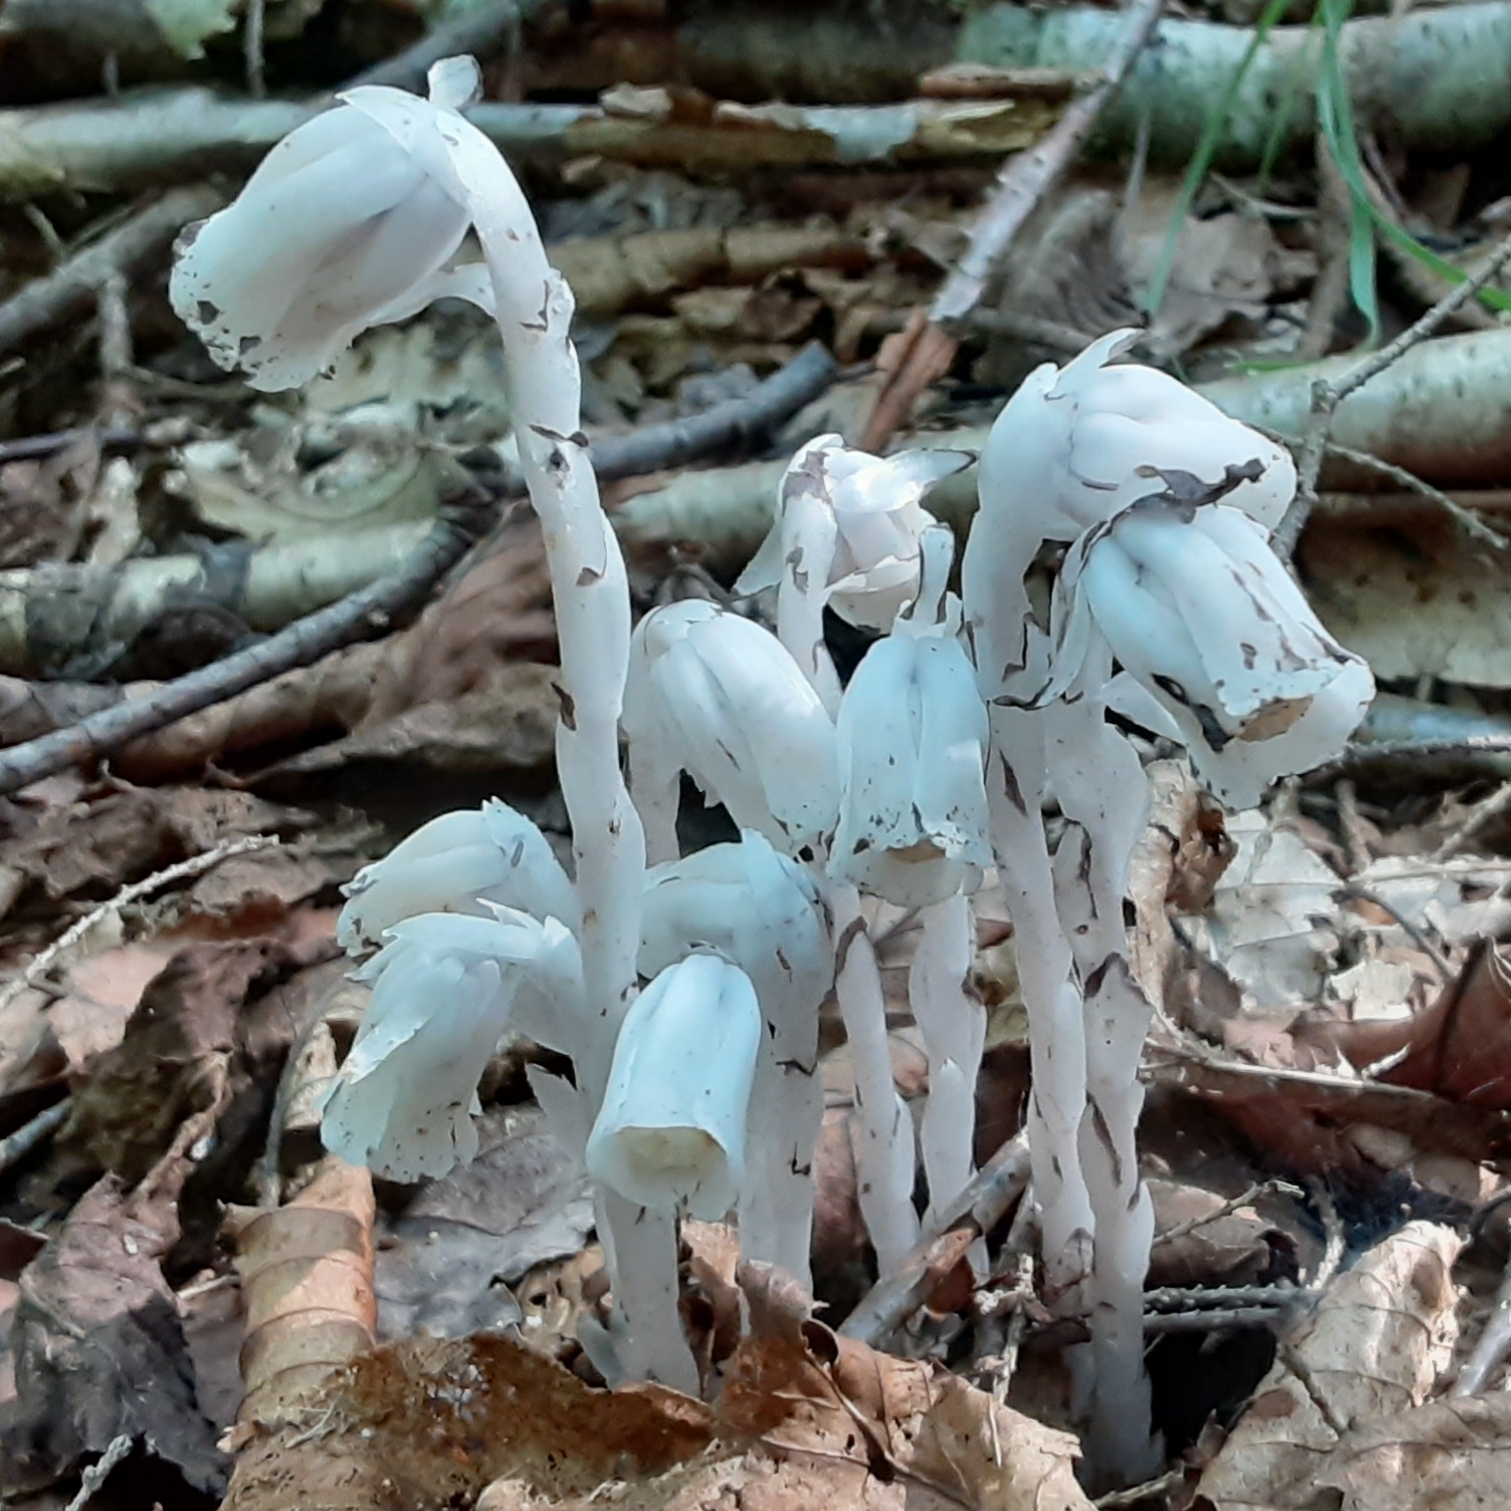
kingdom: Plantae
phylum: Tracheophyta
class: Magnoliopsida
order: Ericales
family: Ericaceae
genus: Monotropa
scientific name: Monotropa uniflora
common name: Convulsion root
